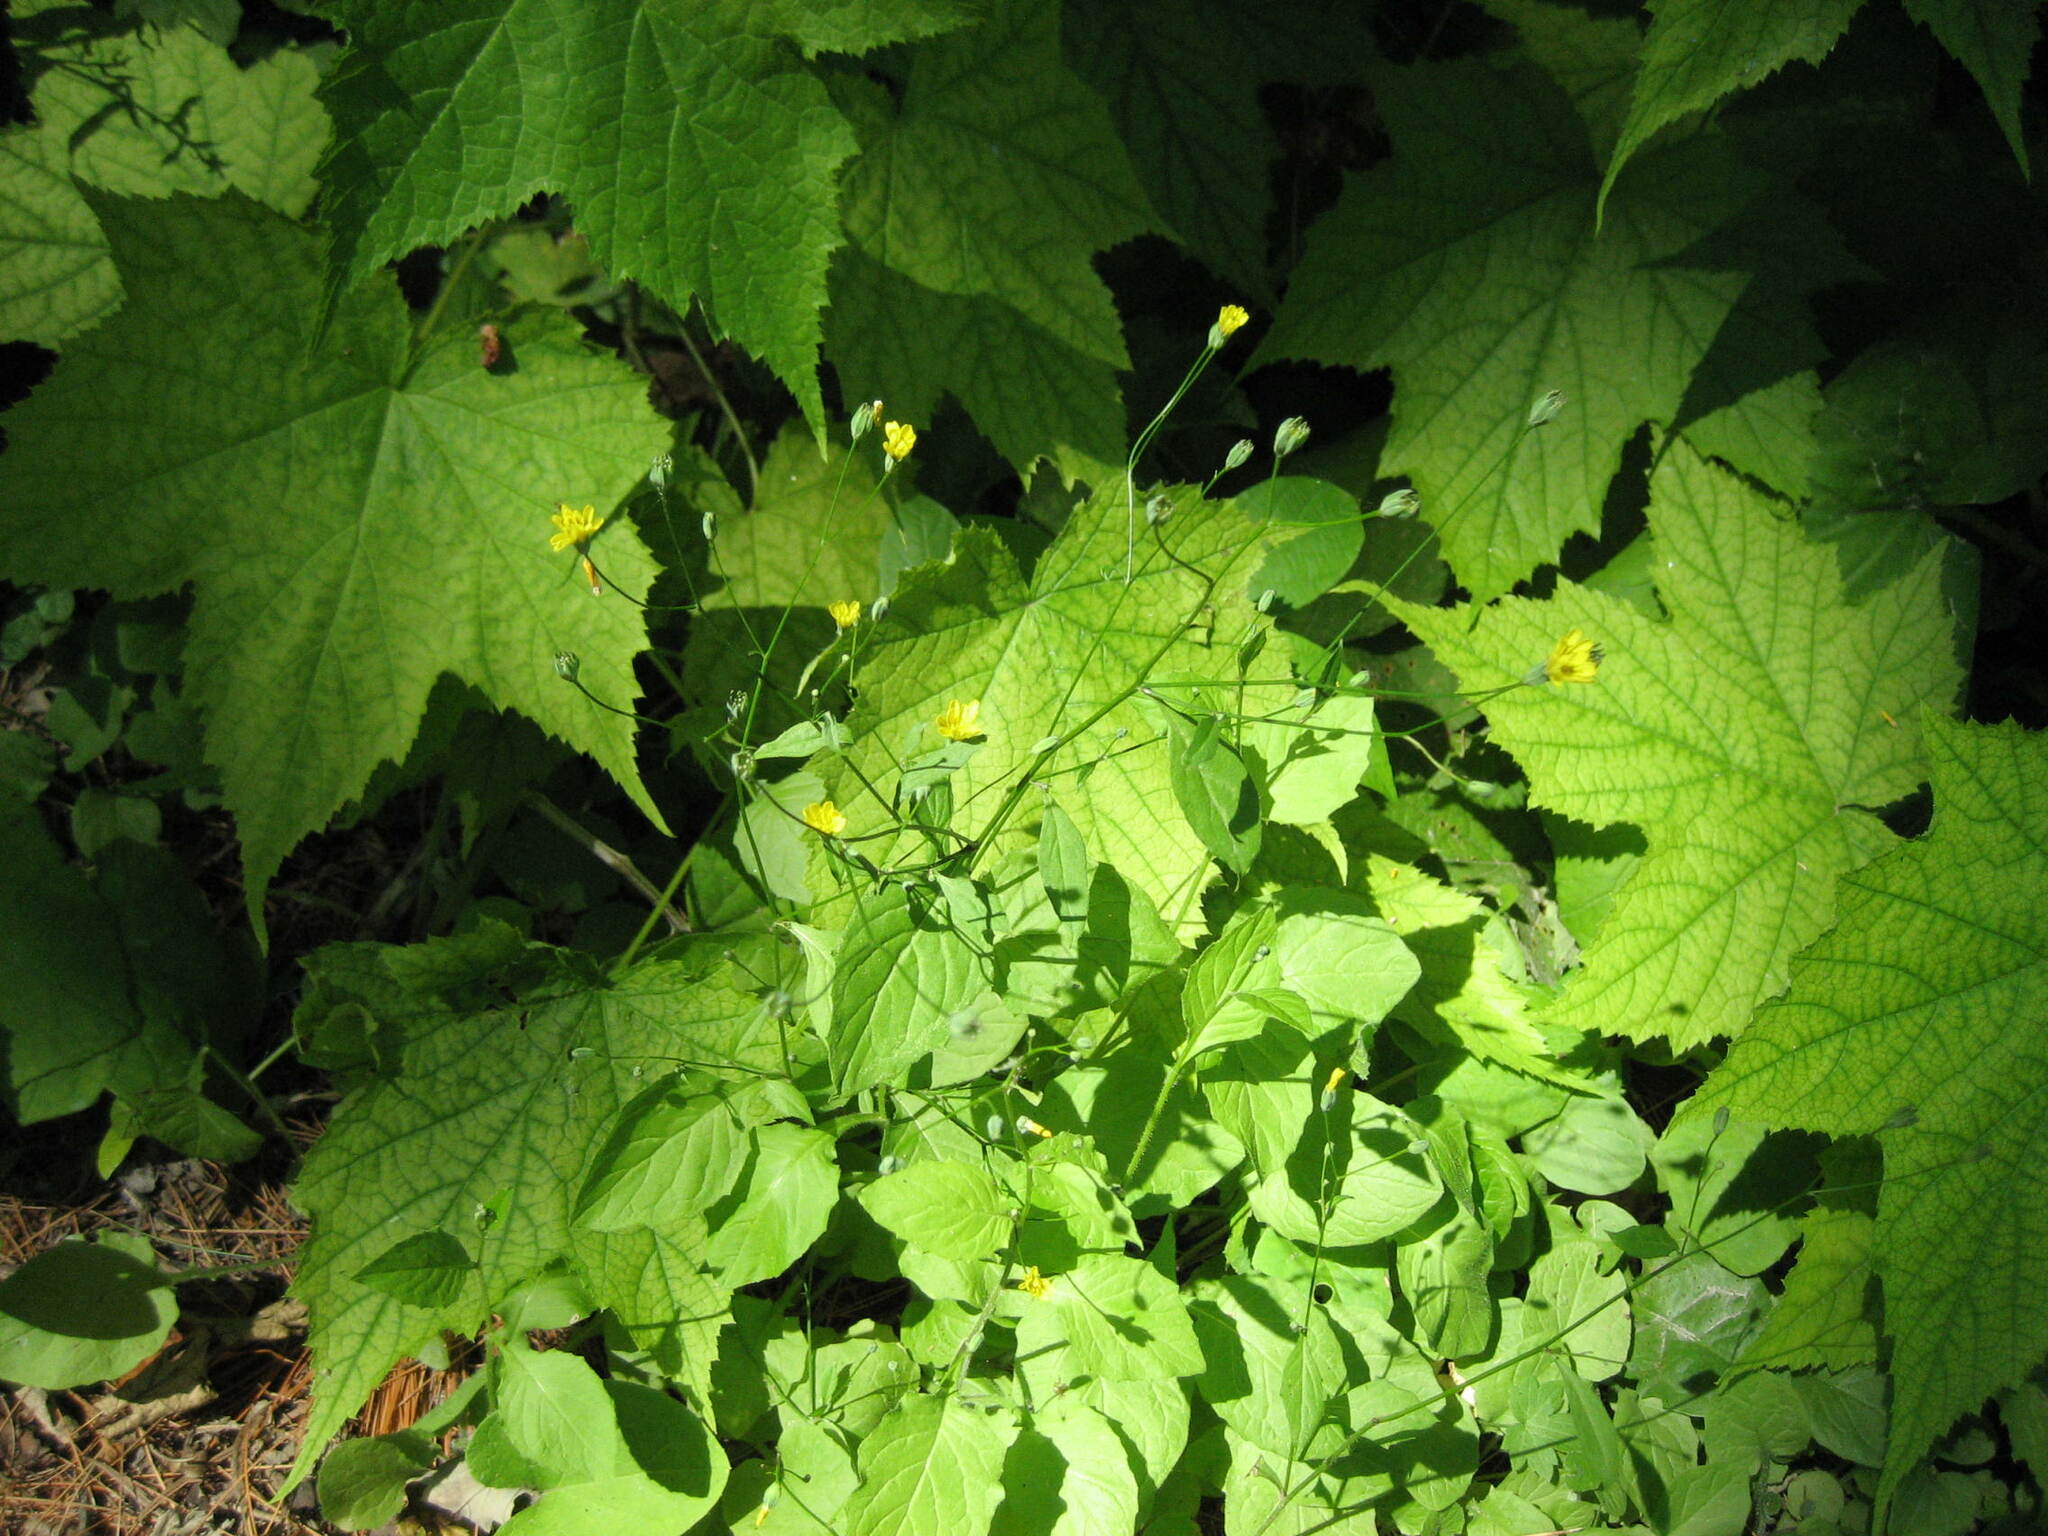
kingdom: Plantae
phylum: Tracheophyta
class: Magnoliopsida
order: Asterales
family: Asteraceae
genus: Lapsana
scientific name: Lapsana communis
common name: Nipplewort
